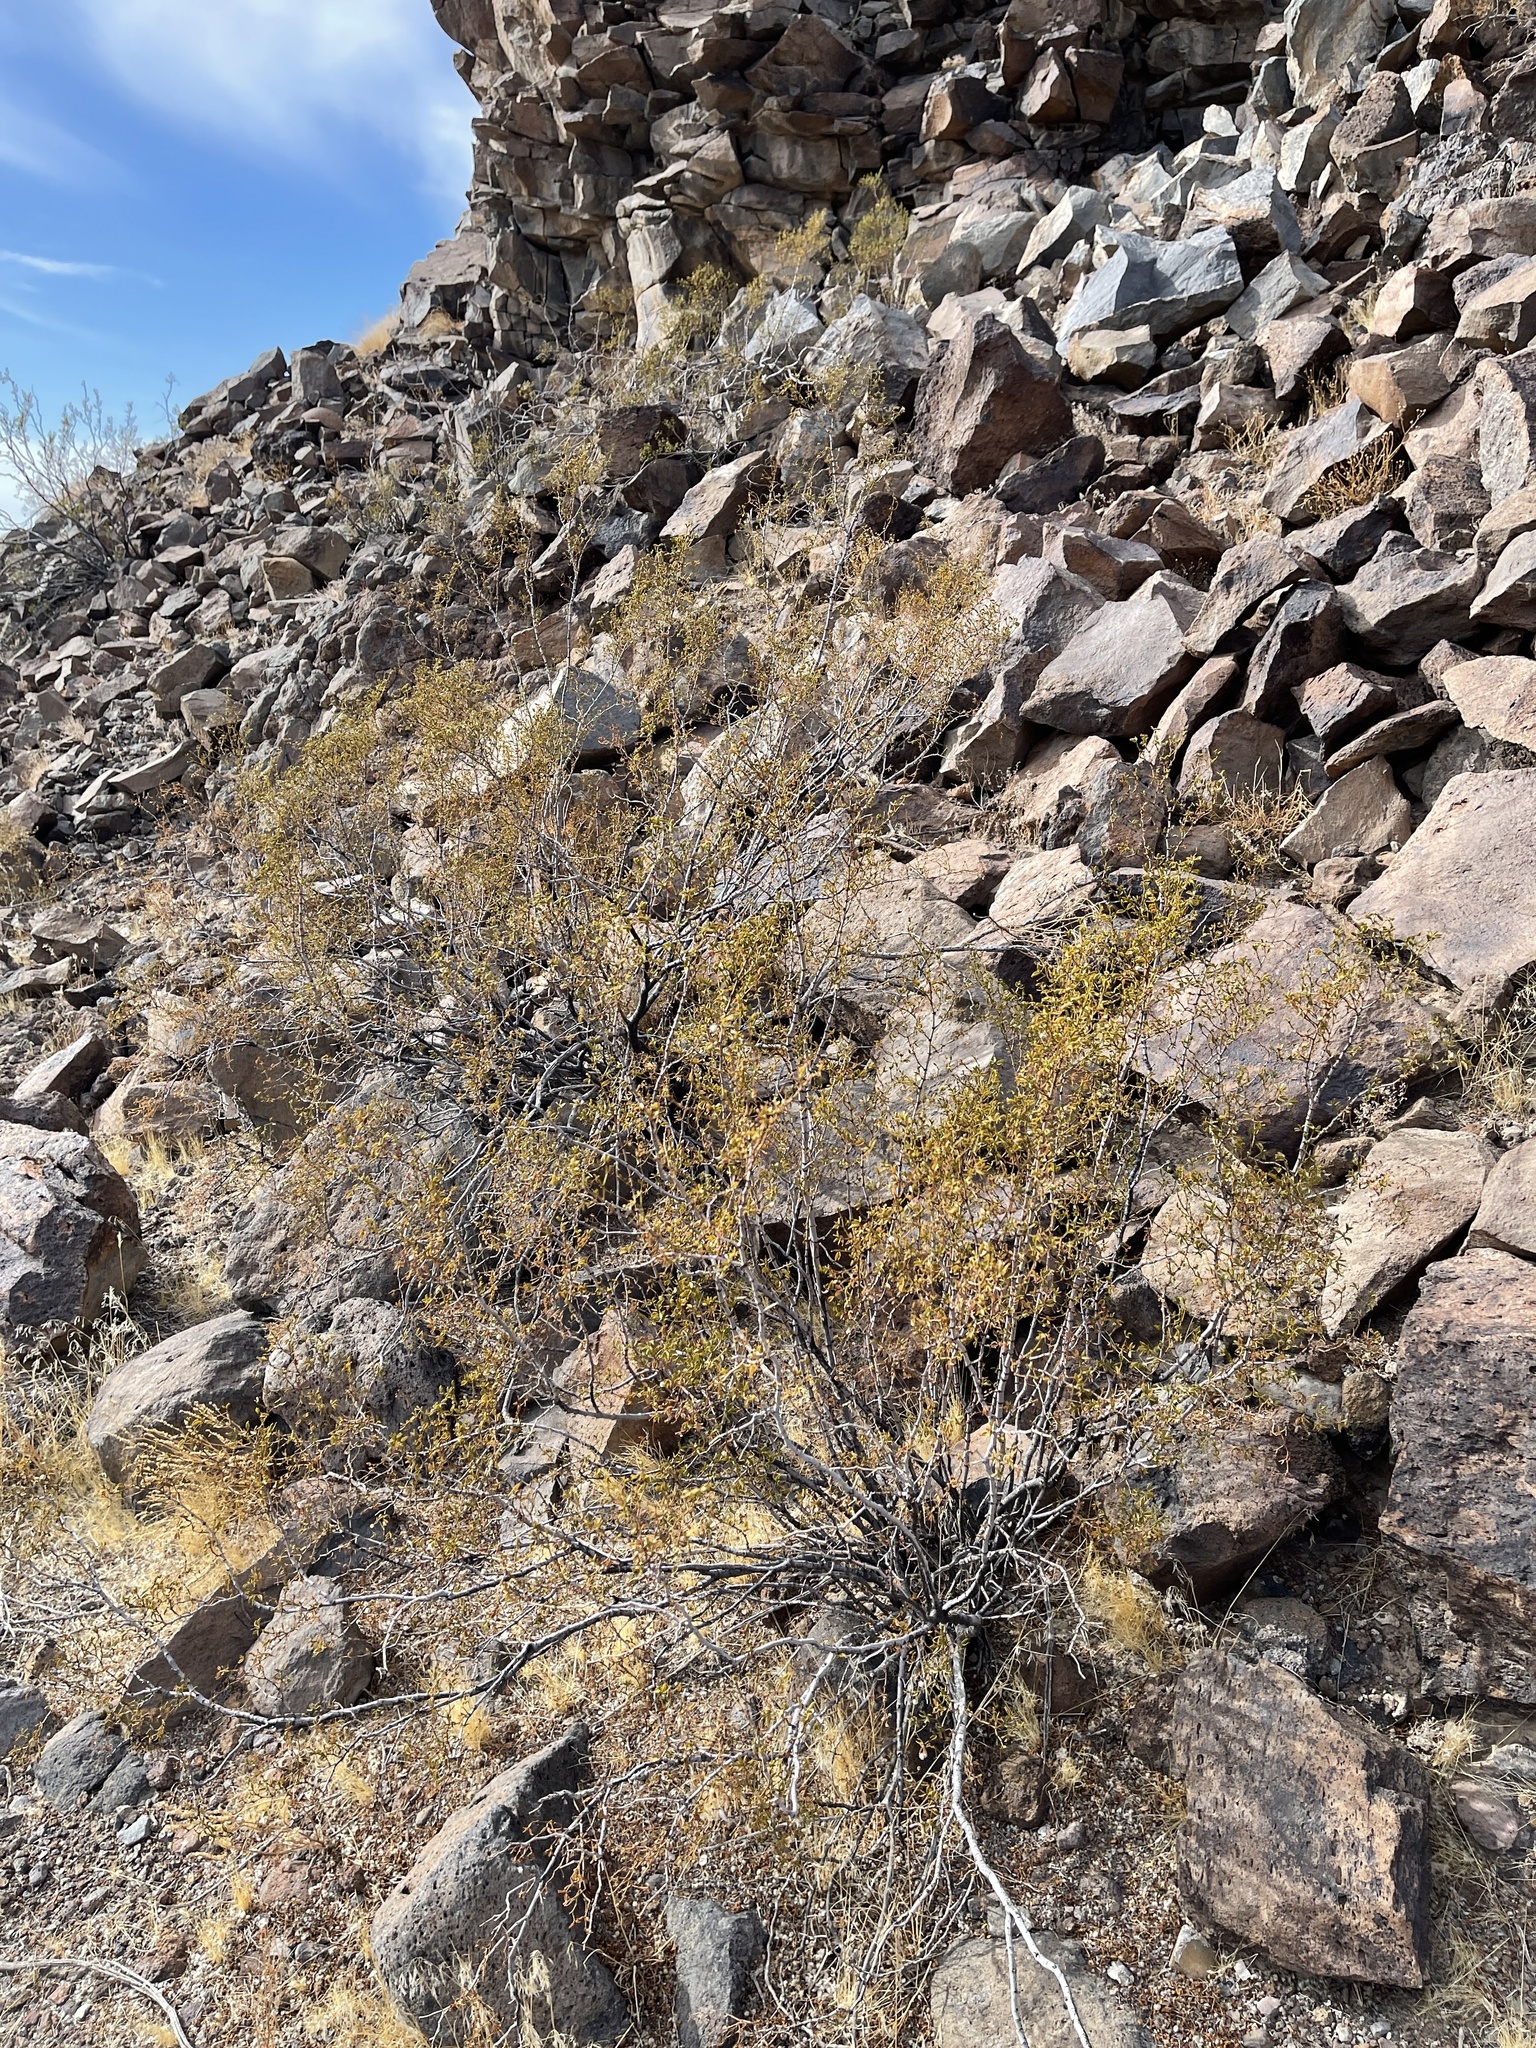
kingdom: Plantae
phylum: Tracheophyta
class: Magnoliopsida
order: Zygophyllales
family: Zygophyllaceae
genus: Larrea
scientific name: Larrea tridentata
